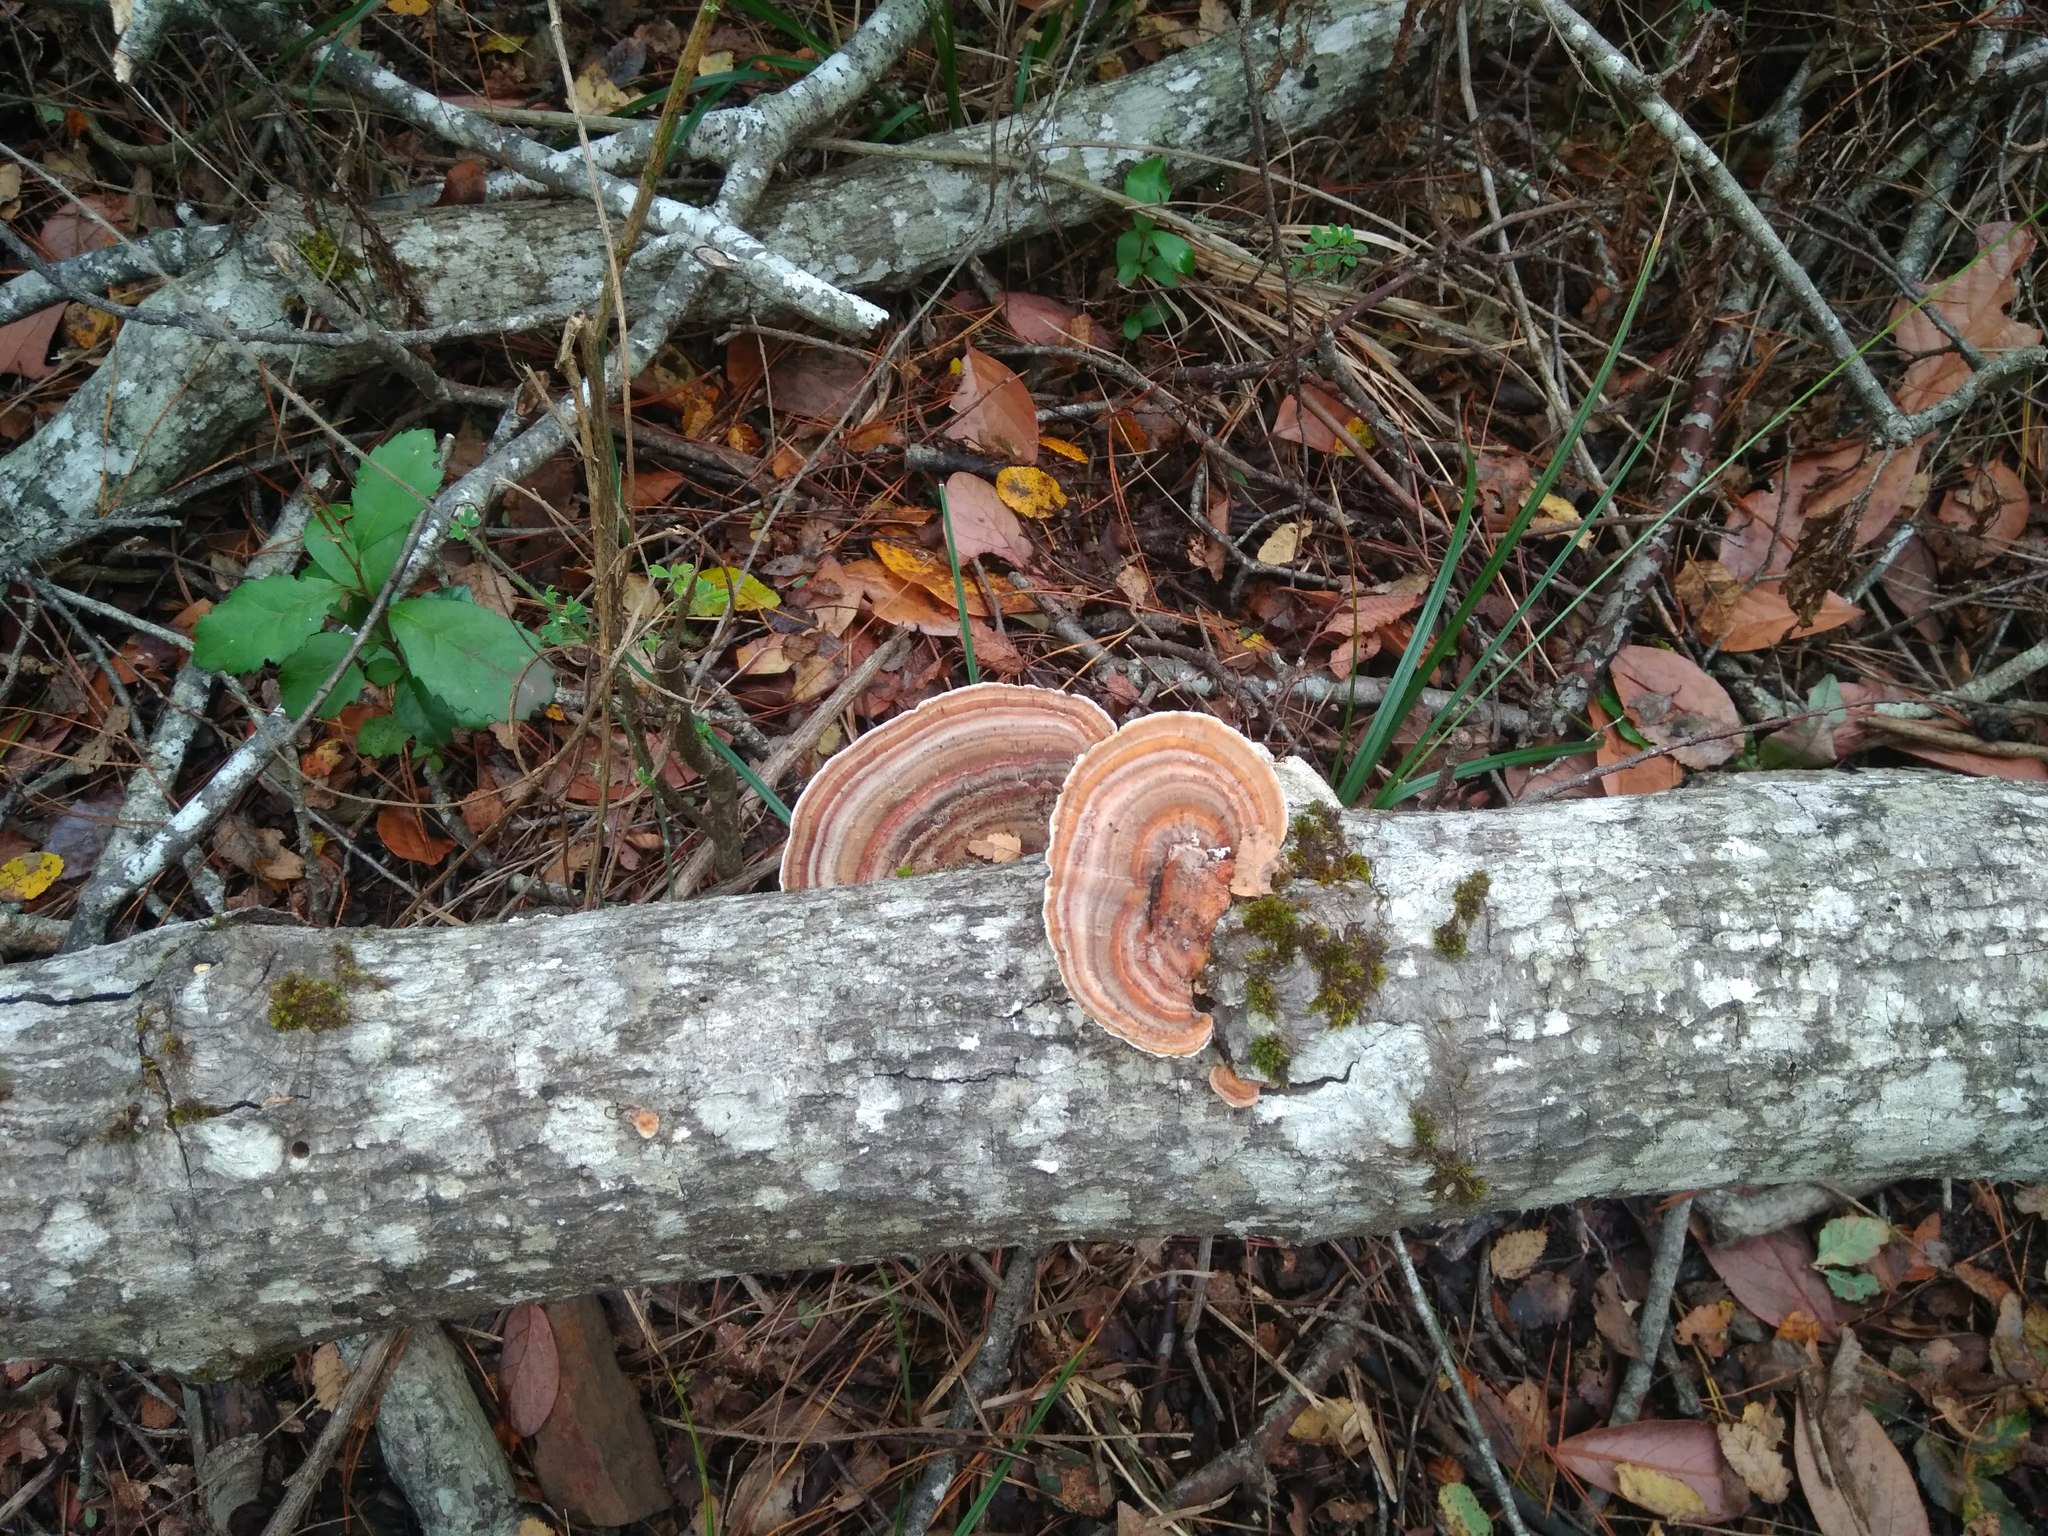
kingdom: Fungi
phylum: Basidiomycota
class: Agaricomycetes
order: Polyporales
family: Polyporaceae
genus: Trametes
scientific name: Trametes versicolor
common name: Turkeytail
